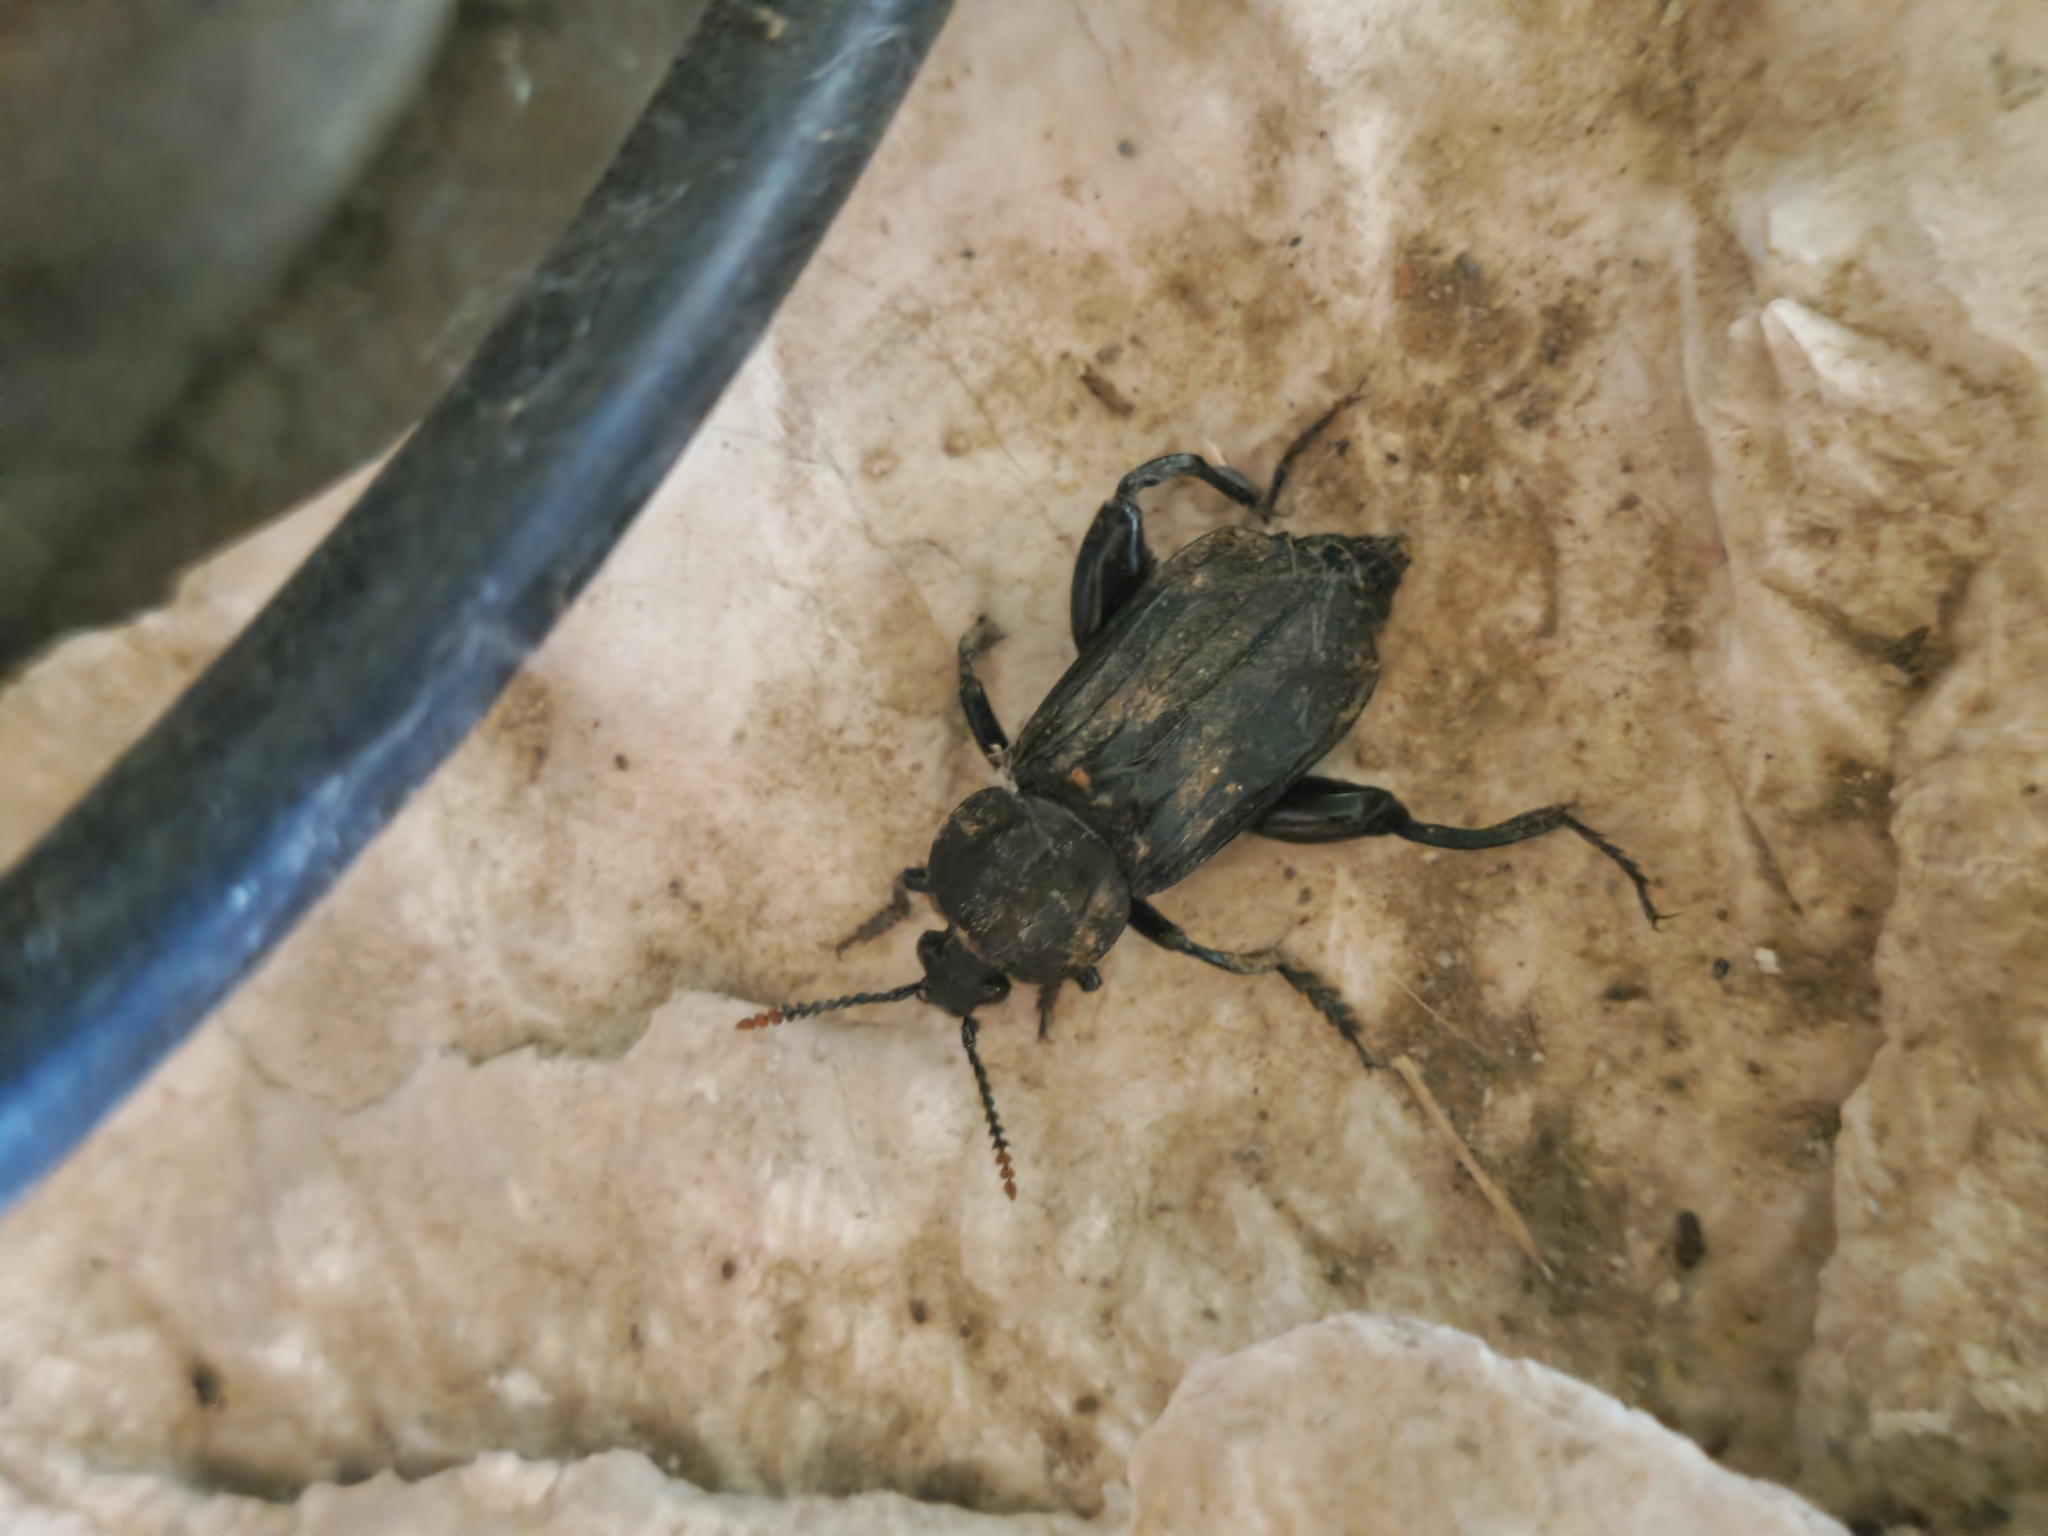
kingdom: Animalia
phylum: Arthropoda
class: Insecta
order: Coleoptera
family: Staphylinidae
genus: Necrodes
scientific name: Necrodes littoralis
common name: Shore sexton beetle
